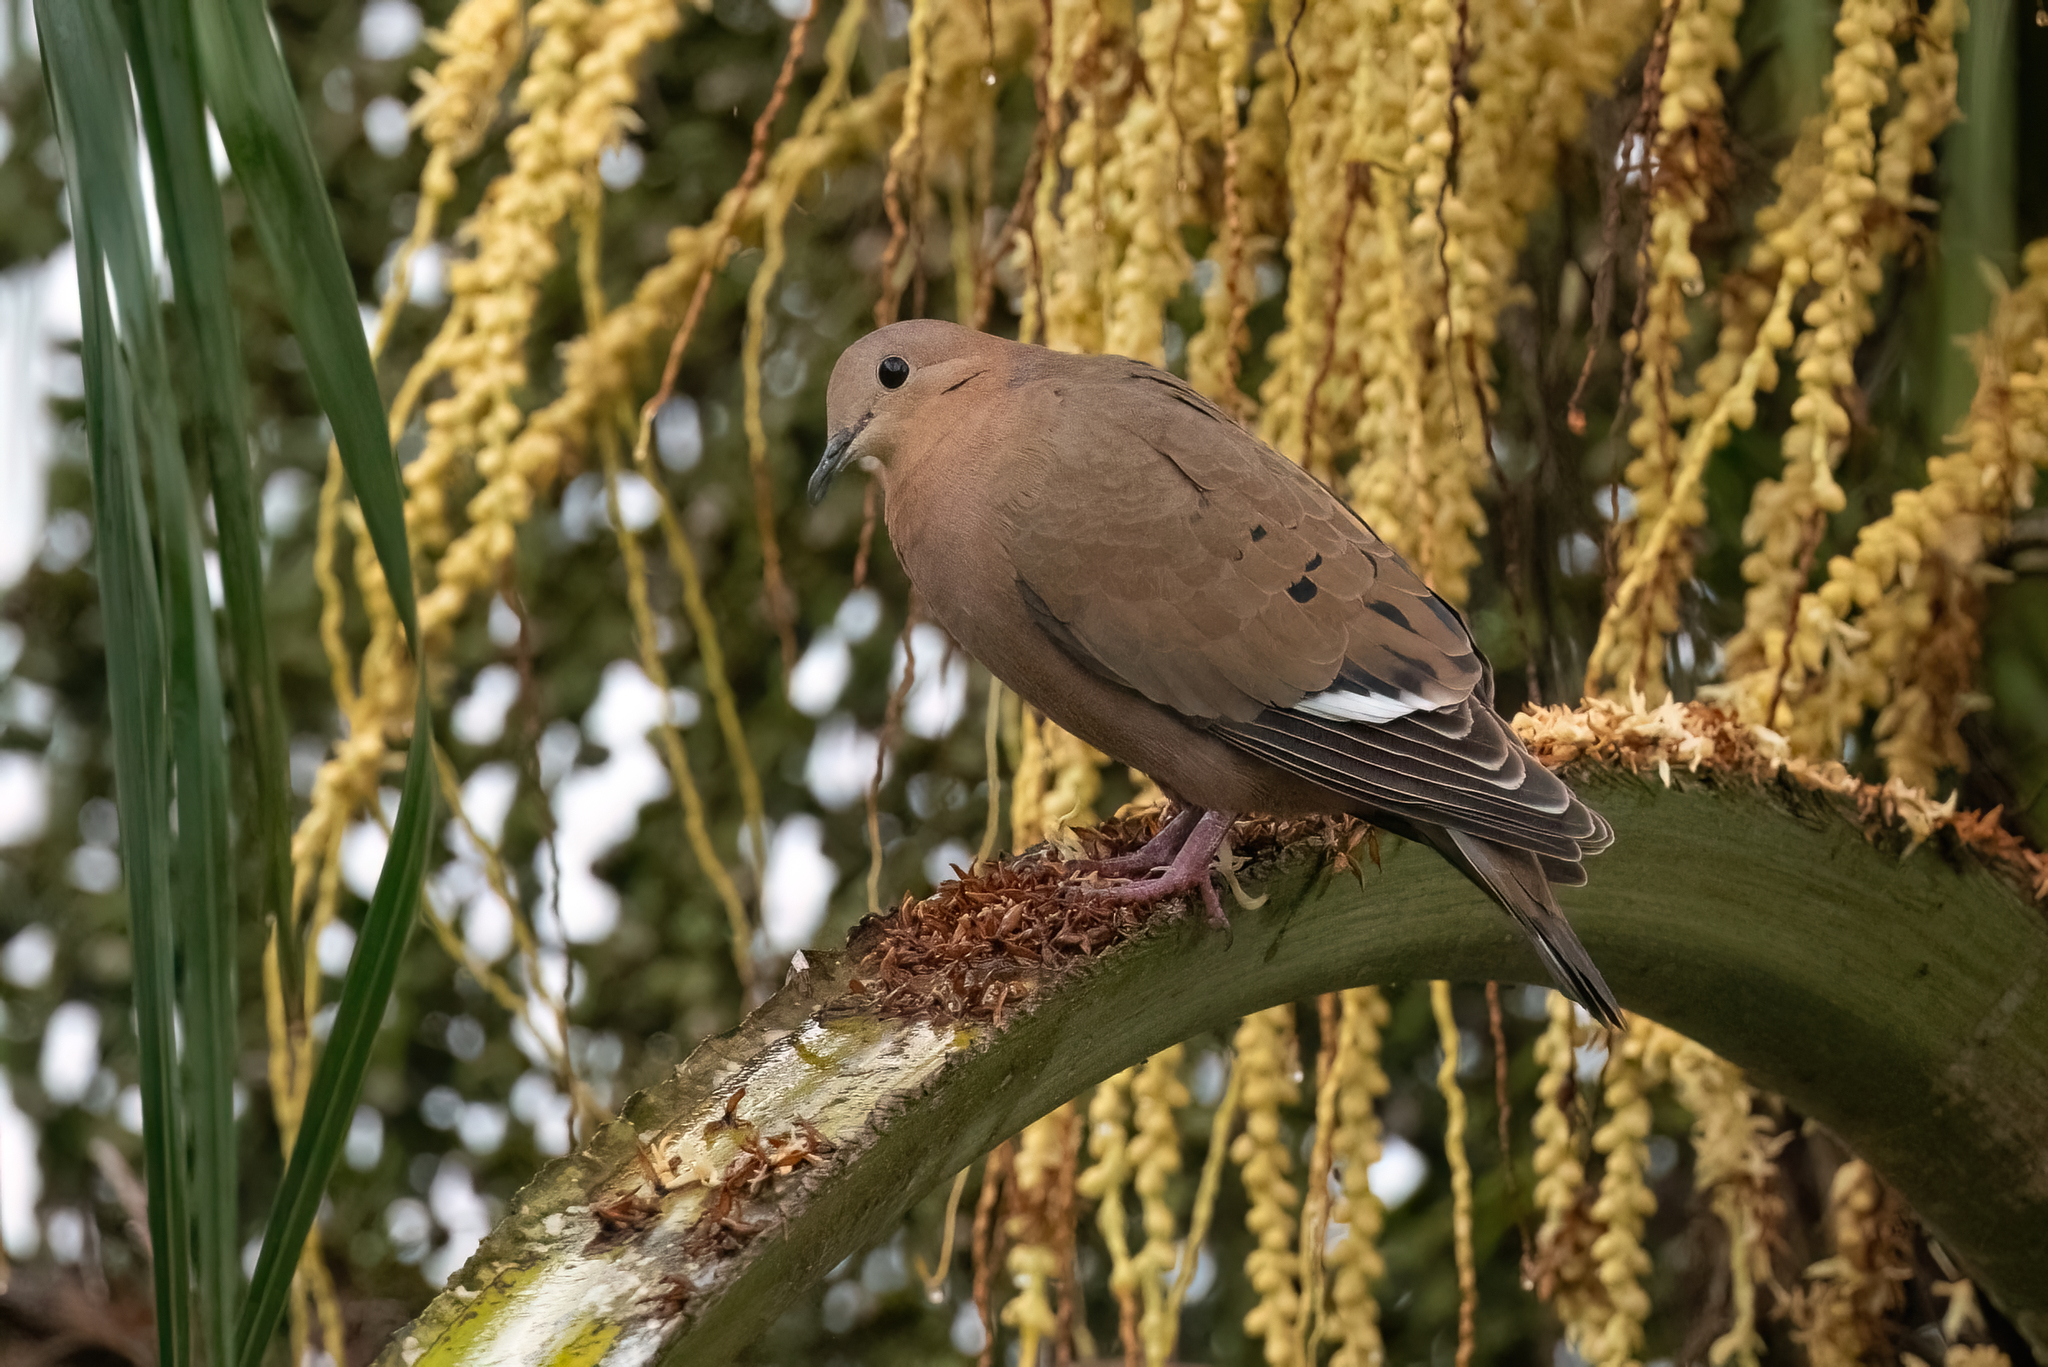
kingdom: Animalia
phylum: Chordata
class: Aves
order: Columbiformes
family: Columbidae
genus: Zenaida
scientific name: Zenaida aurita
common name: Zenaida dove
